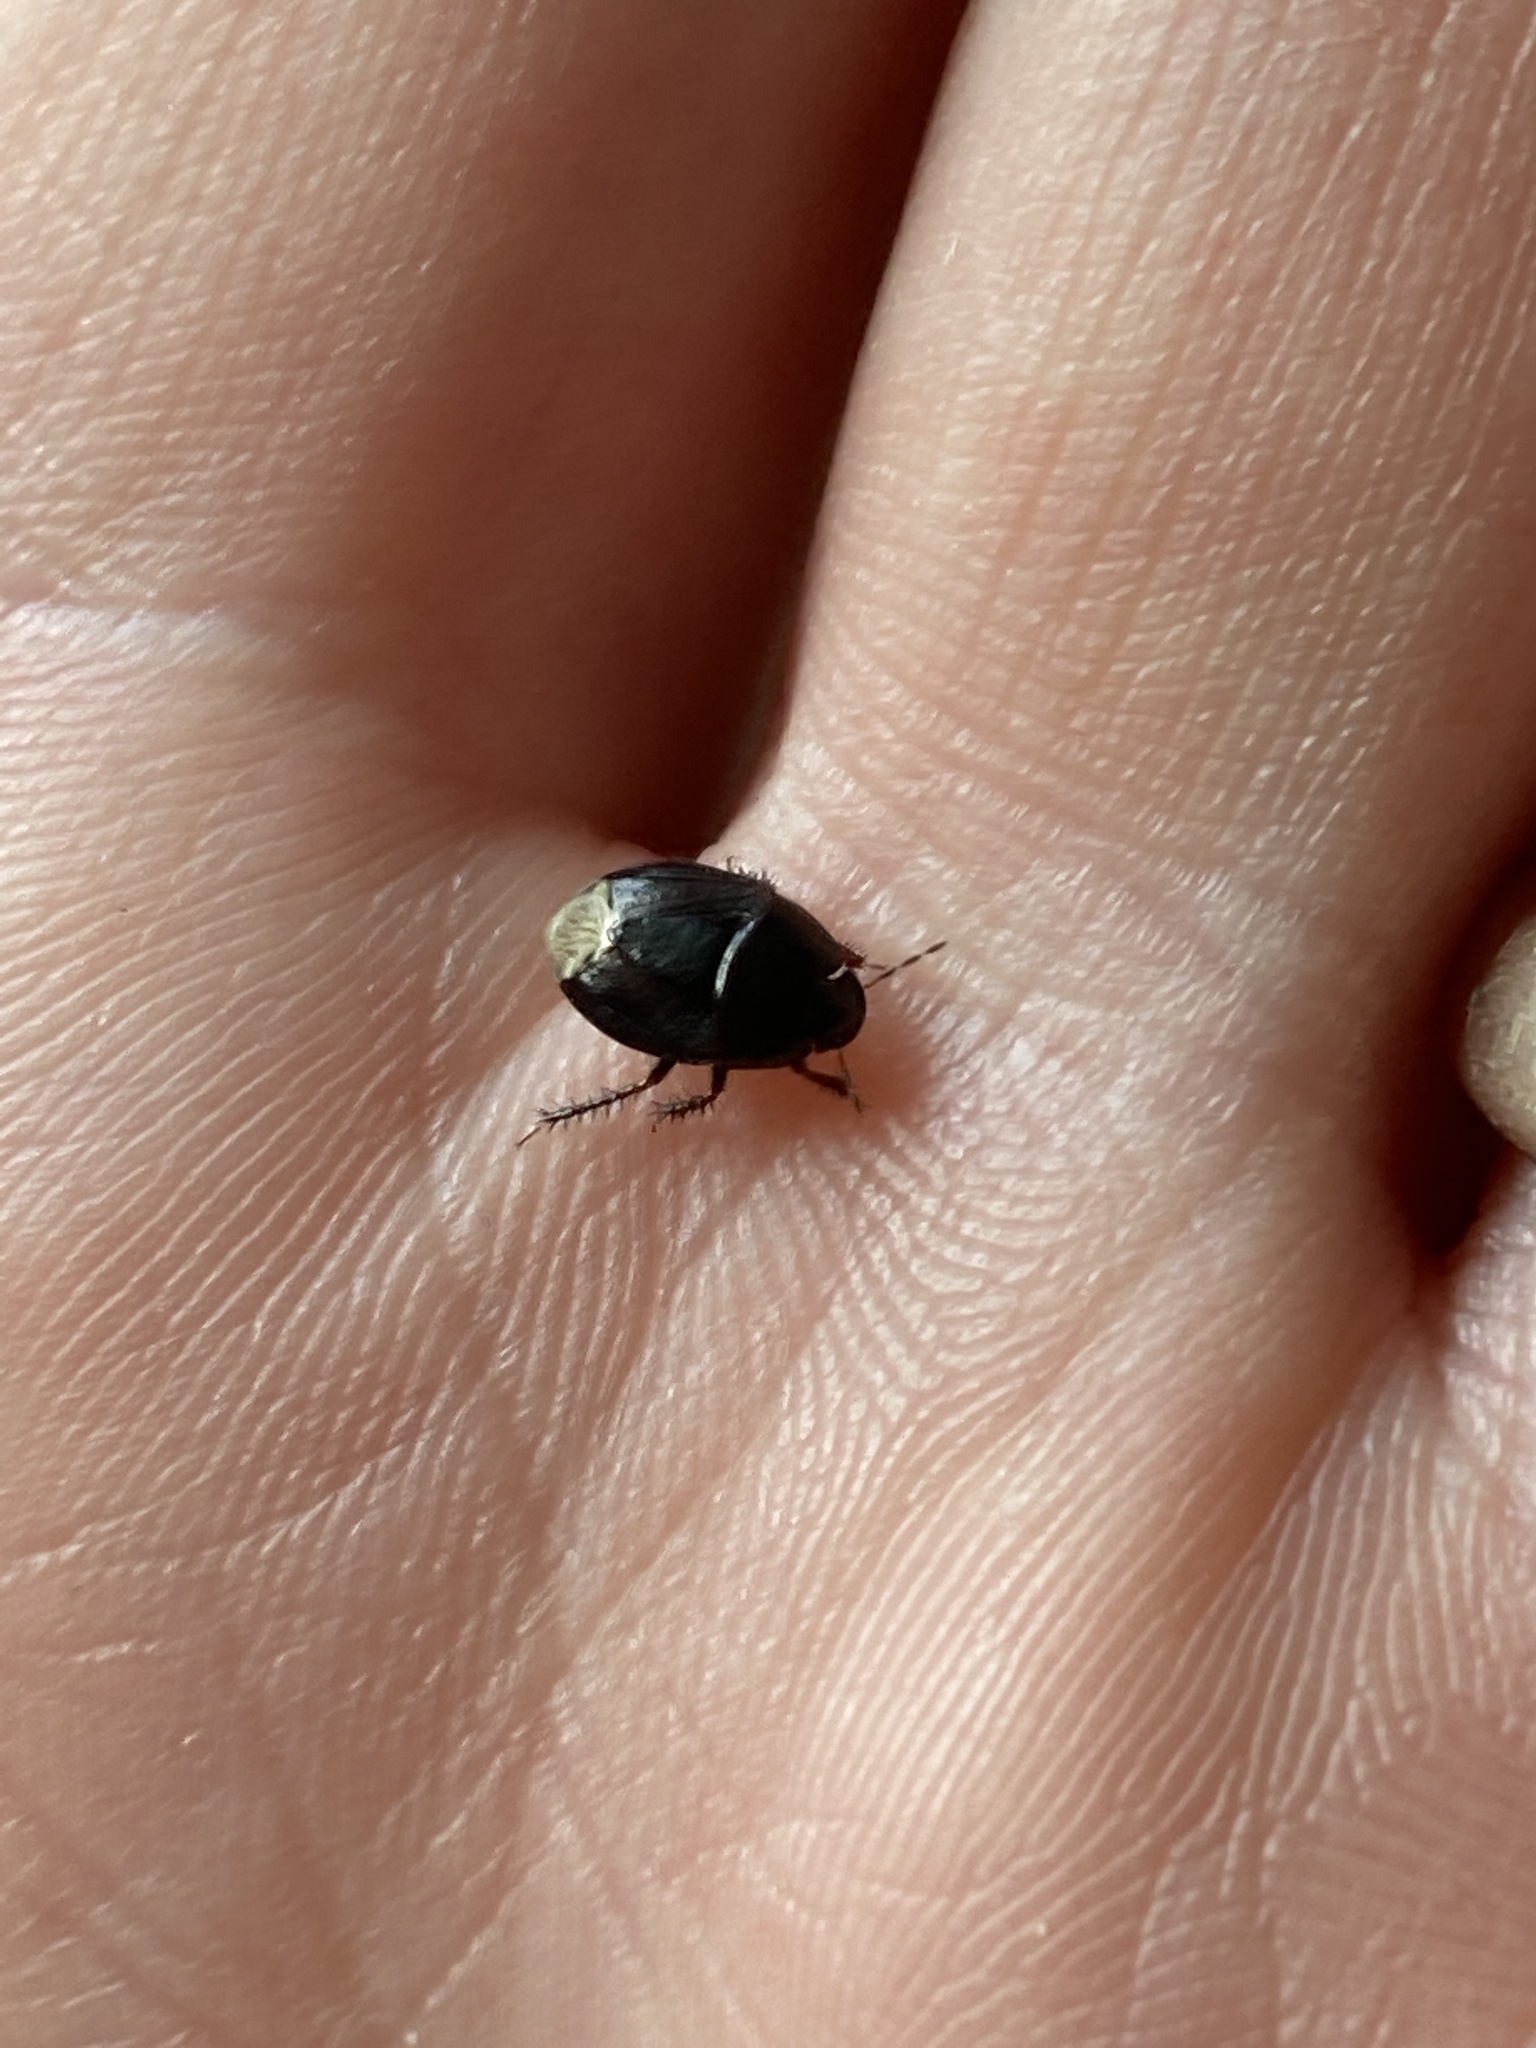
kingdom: Animalia
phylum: Arthropoda
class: Insecta
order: Hemiptera
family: Cydnidae
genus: Macroscytus
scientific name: Macroscytus australis
